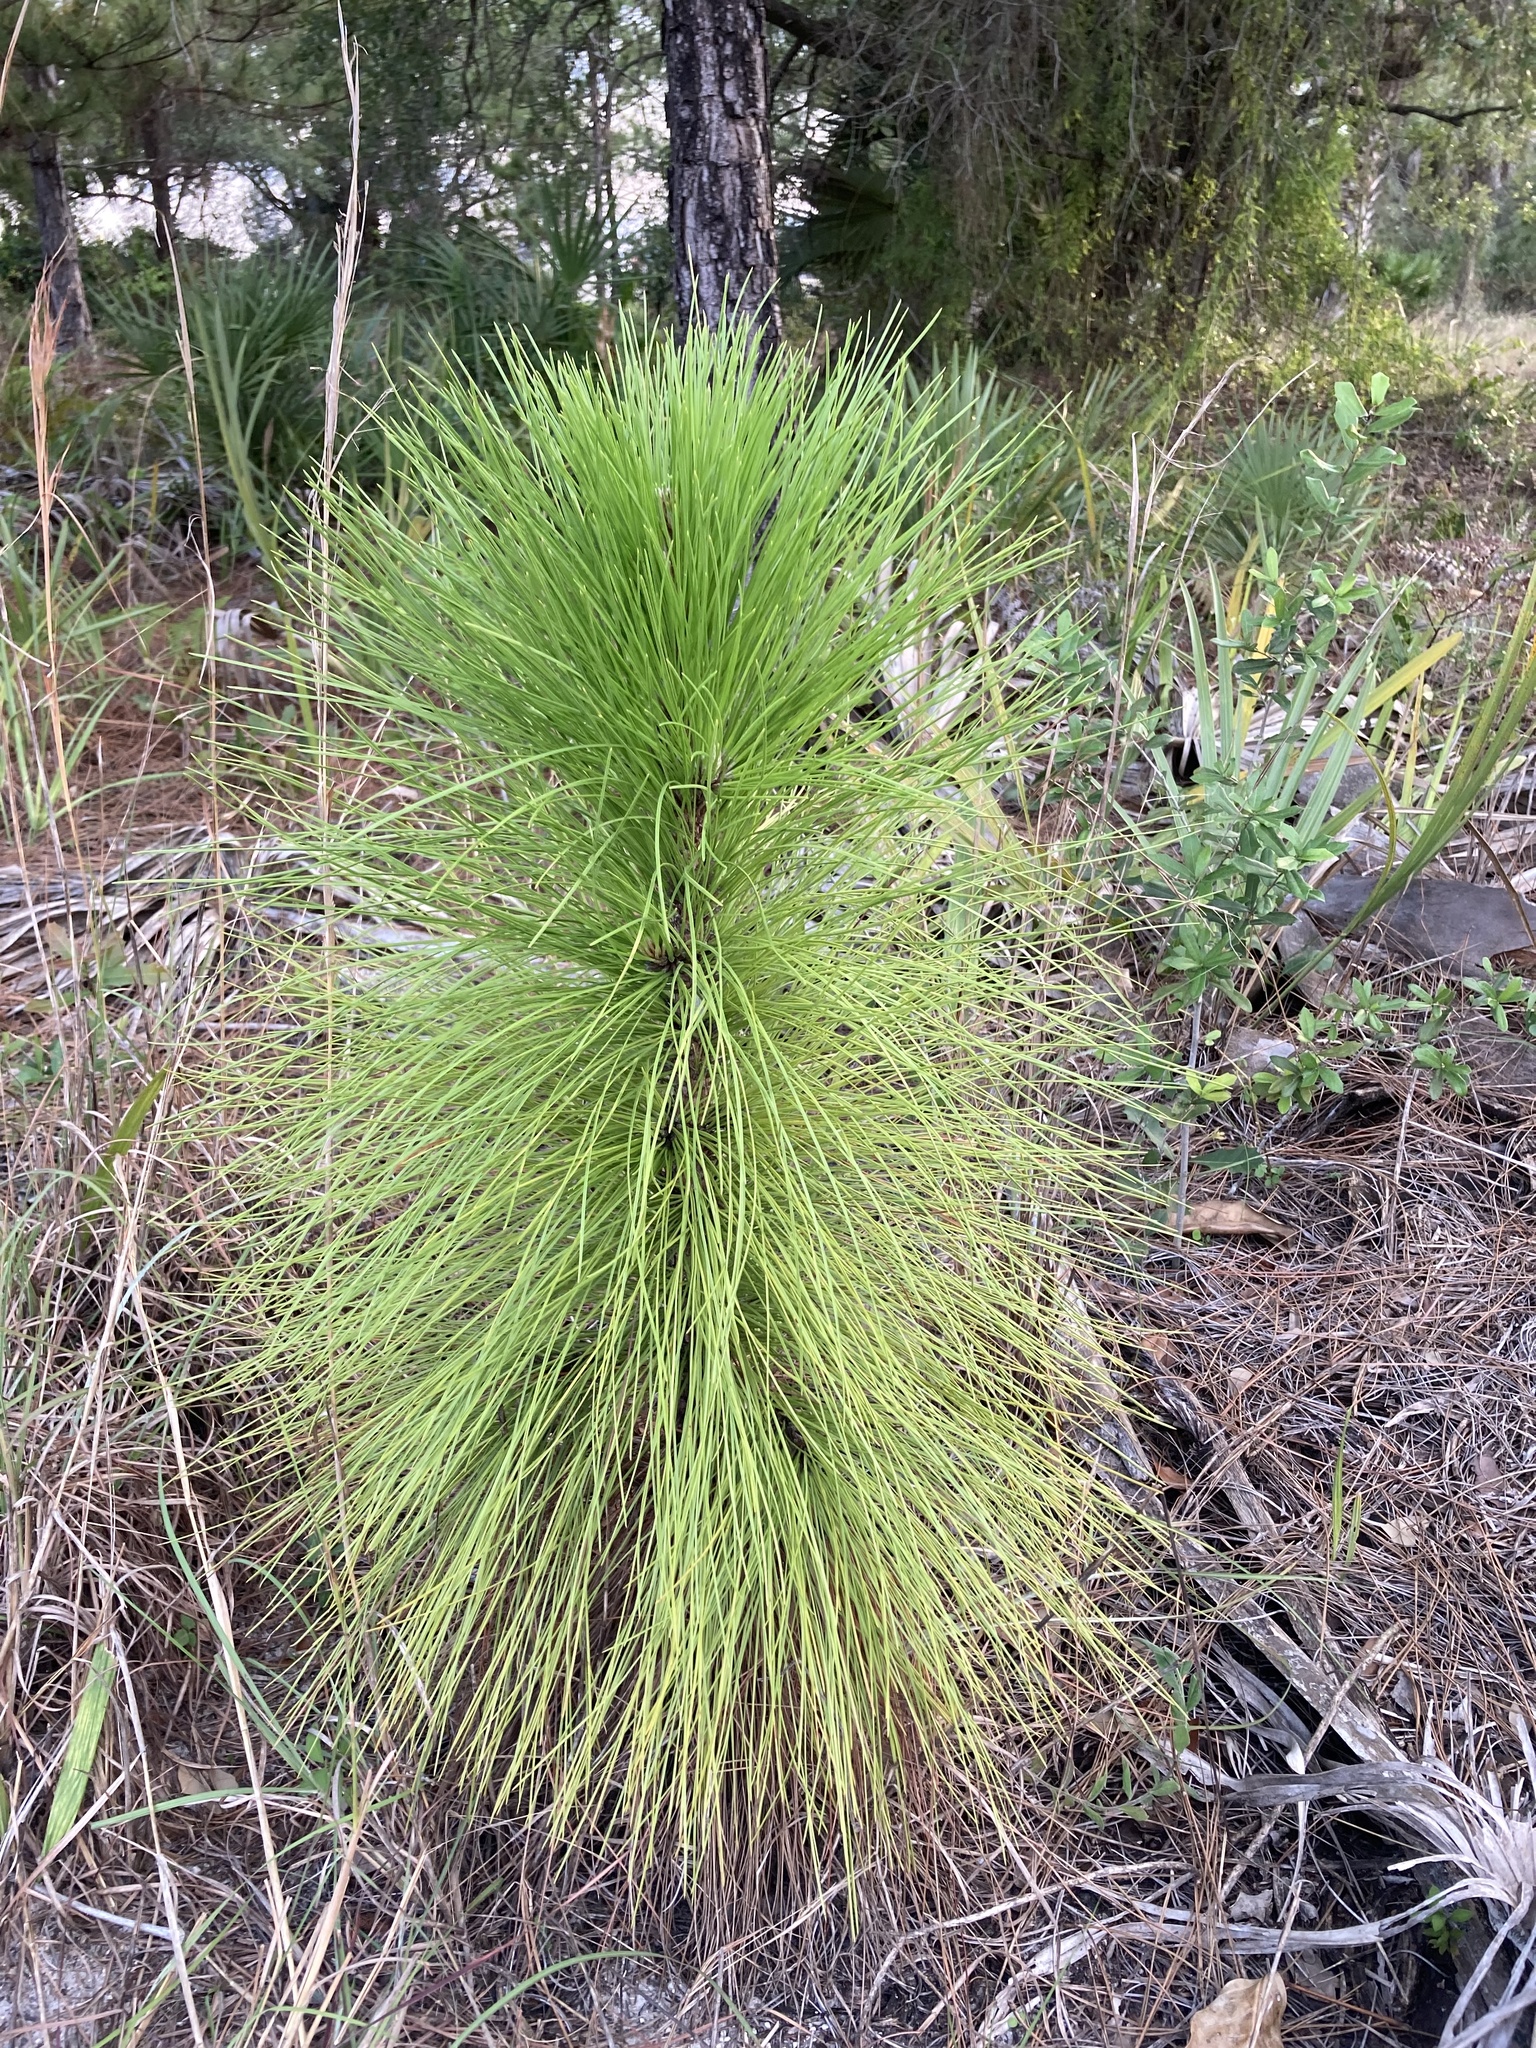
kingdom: Plantae
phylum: Tracheophyta
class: Pinopsida
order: Pinales
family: Pinaceae
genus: Pinus
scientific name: Pinus elliottii
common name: Slash pine
